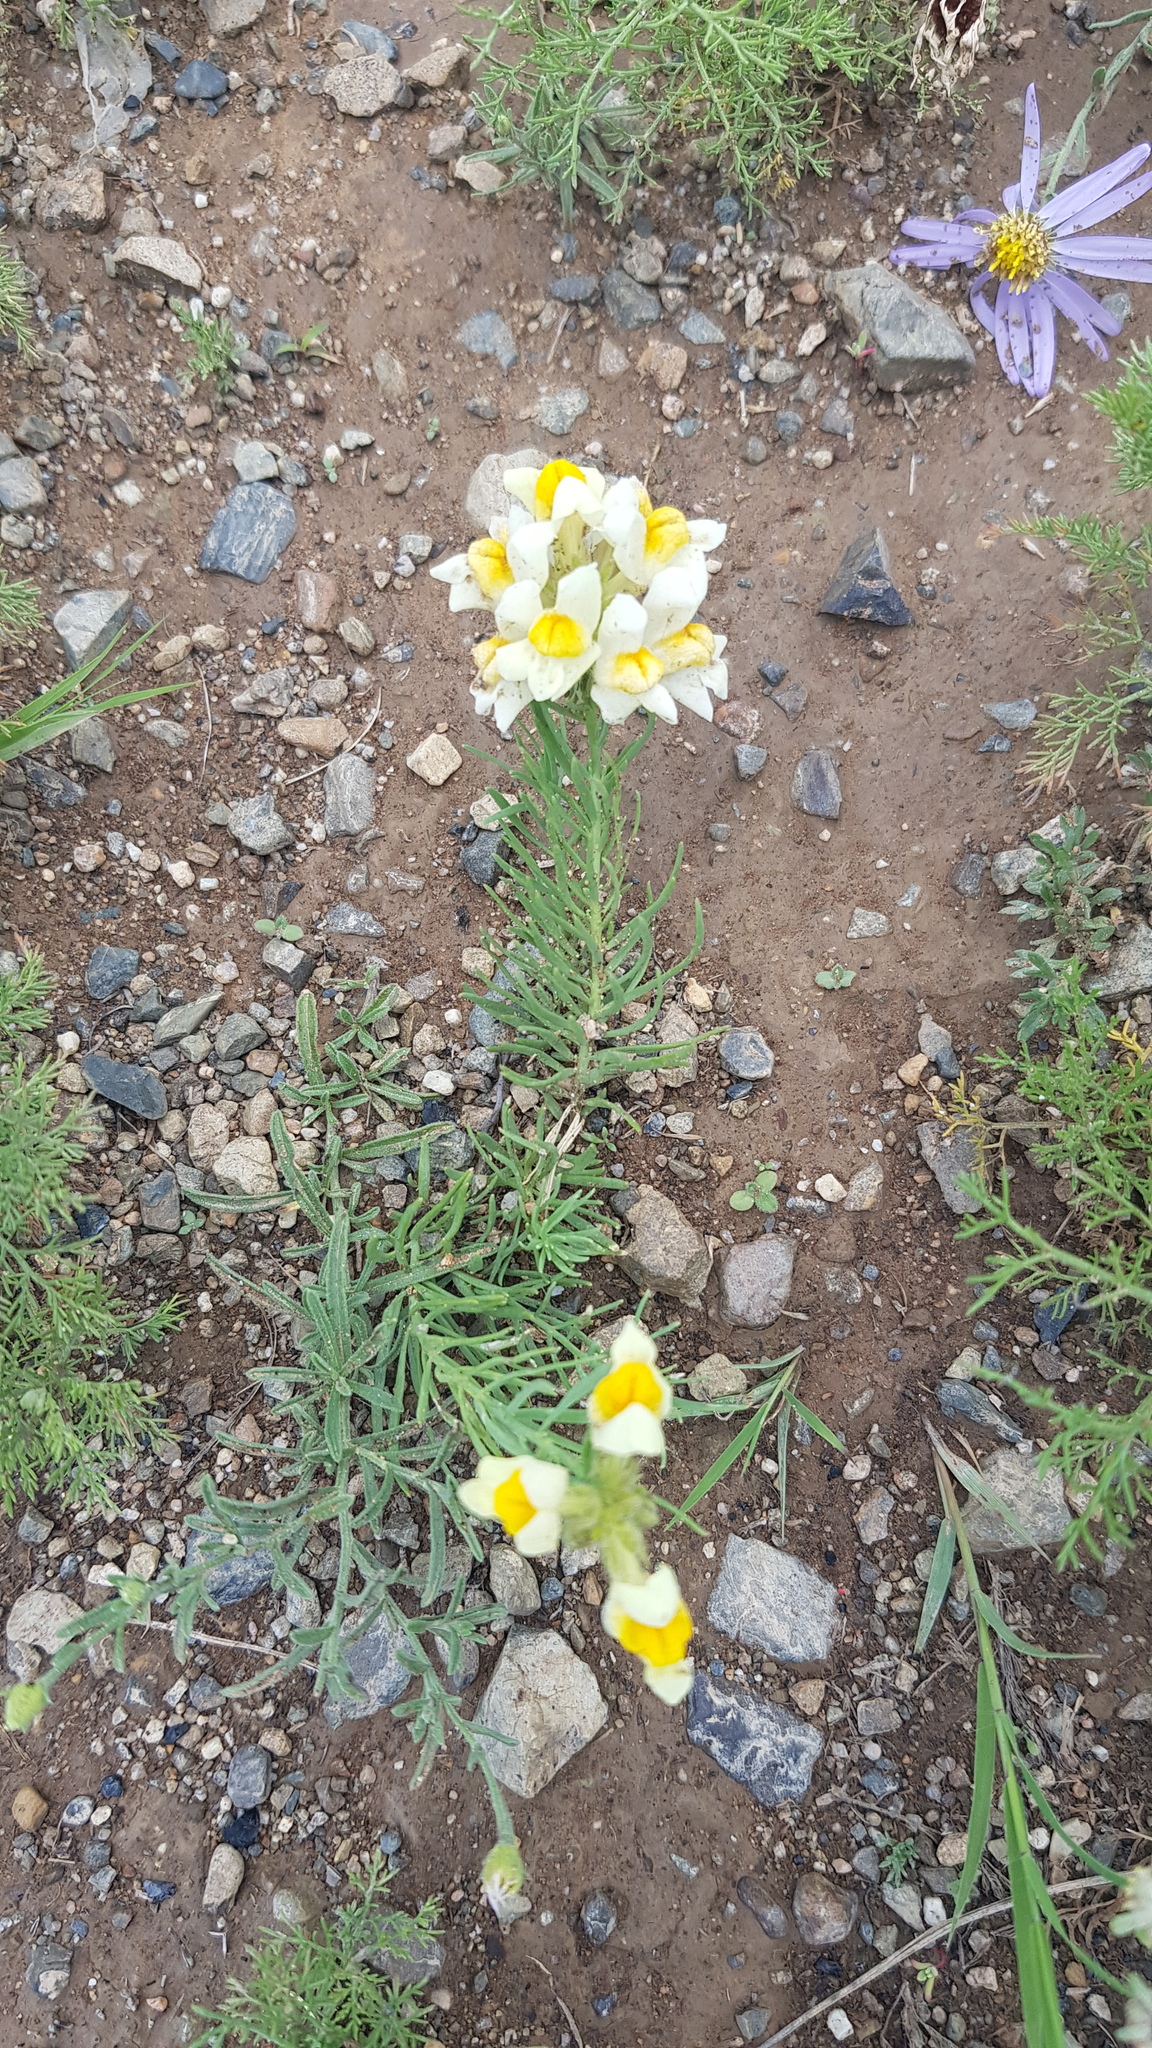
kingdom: Plantae
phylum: Tracheophyta
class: Magnoliopsida
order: Lamiales
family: Plantaginaceae
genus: Linaria
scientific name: Linaria buriatica
